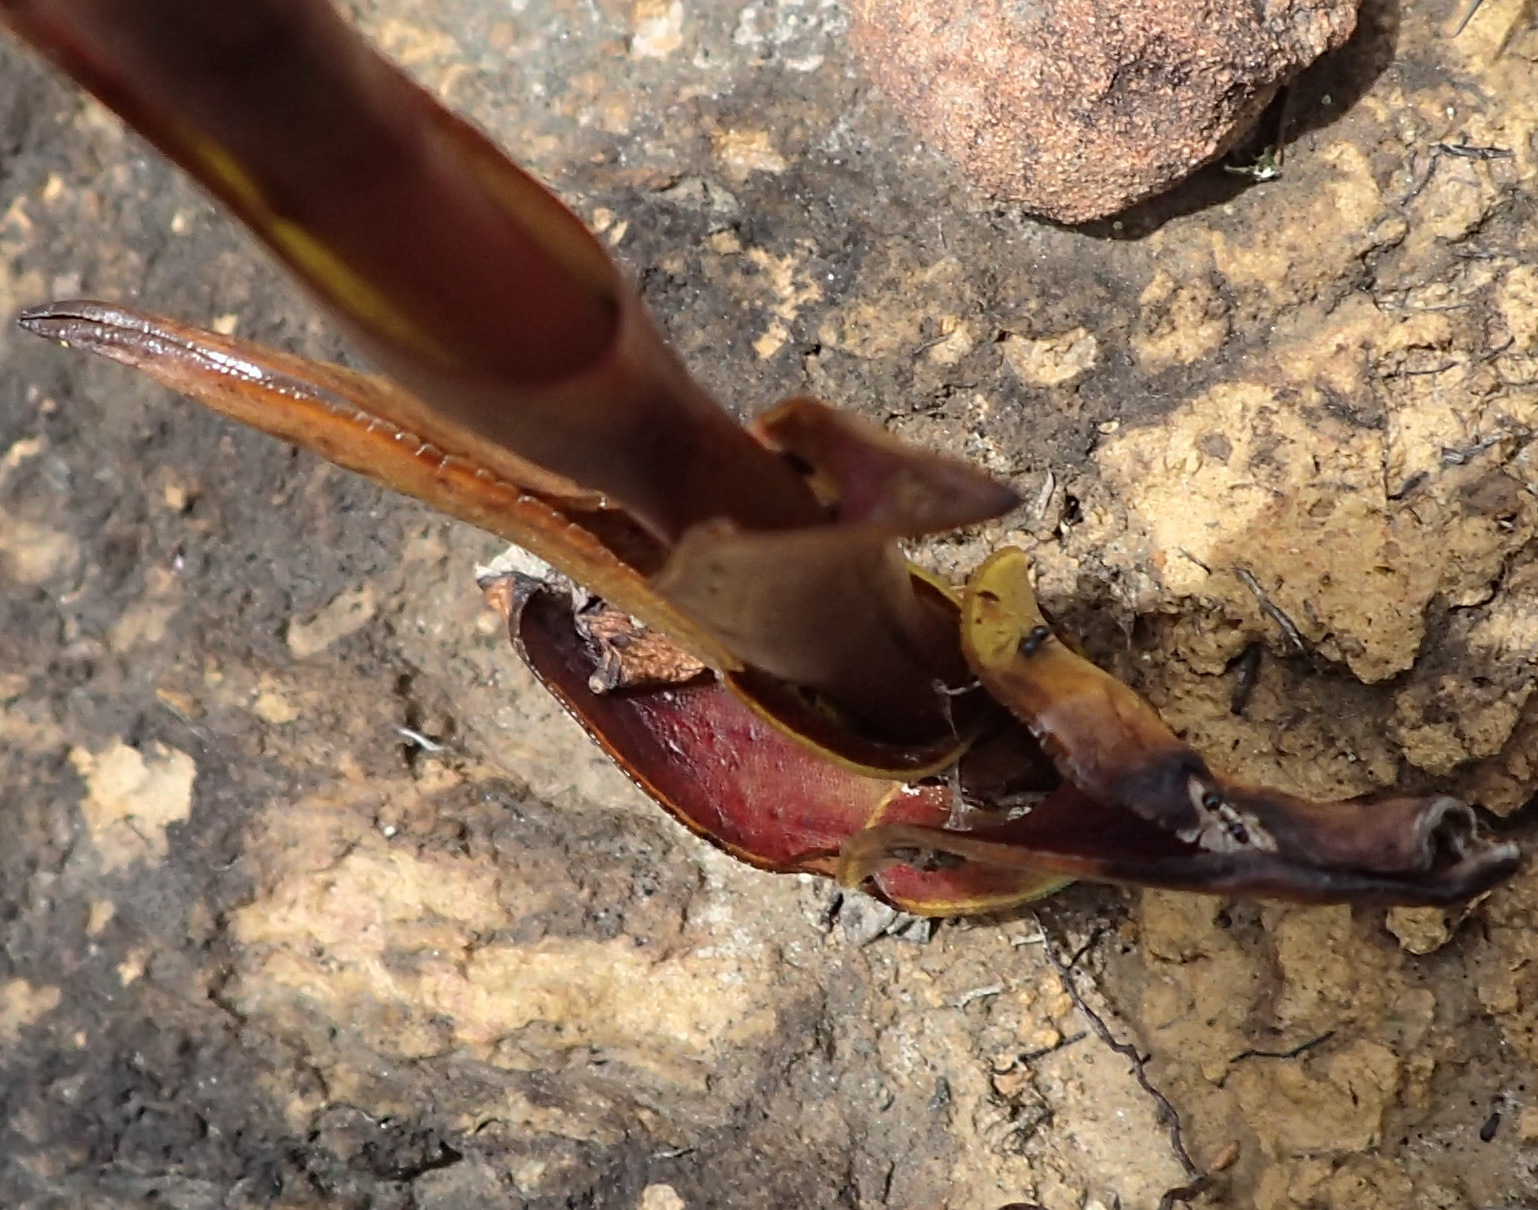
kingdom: Plantae
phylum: Tracheophyta
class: Liliopsida
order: Asparagales
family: Orchidaceae
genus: Satyrium
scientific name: Satyrium stenopetalum
